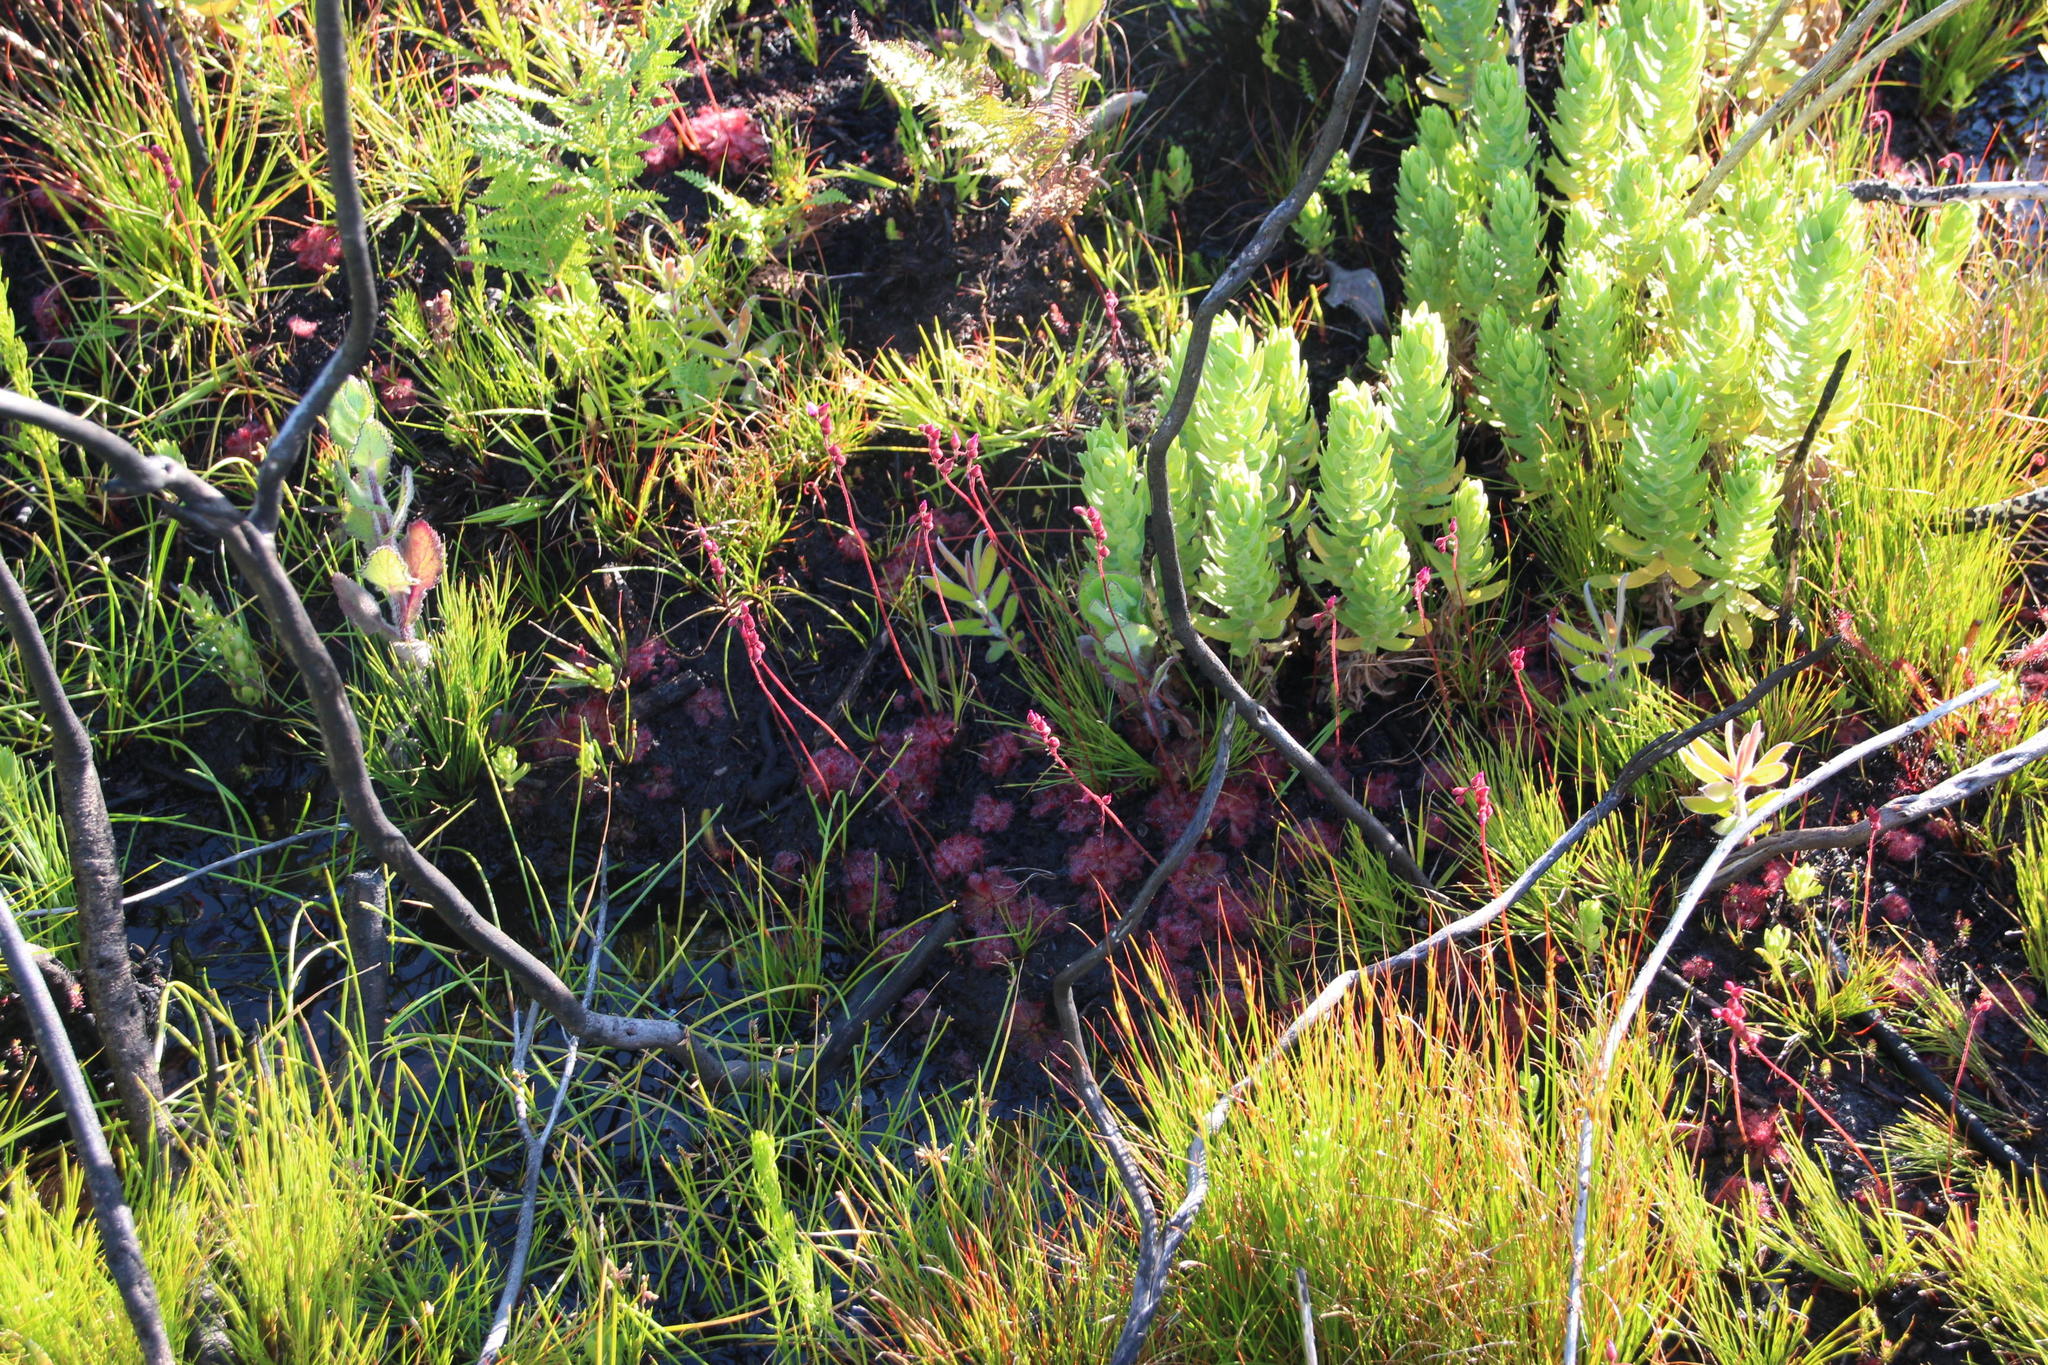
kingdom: Plantae
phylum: Tracheophyta
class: Magnoliopsida
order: Caryophyllales
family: Droseraceae
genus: Drosera
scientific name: Drosera trinervia
